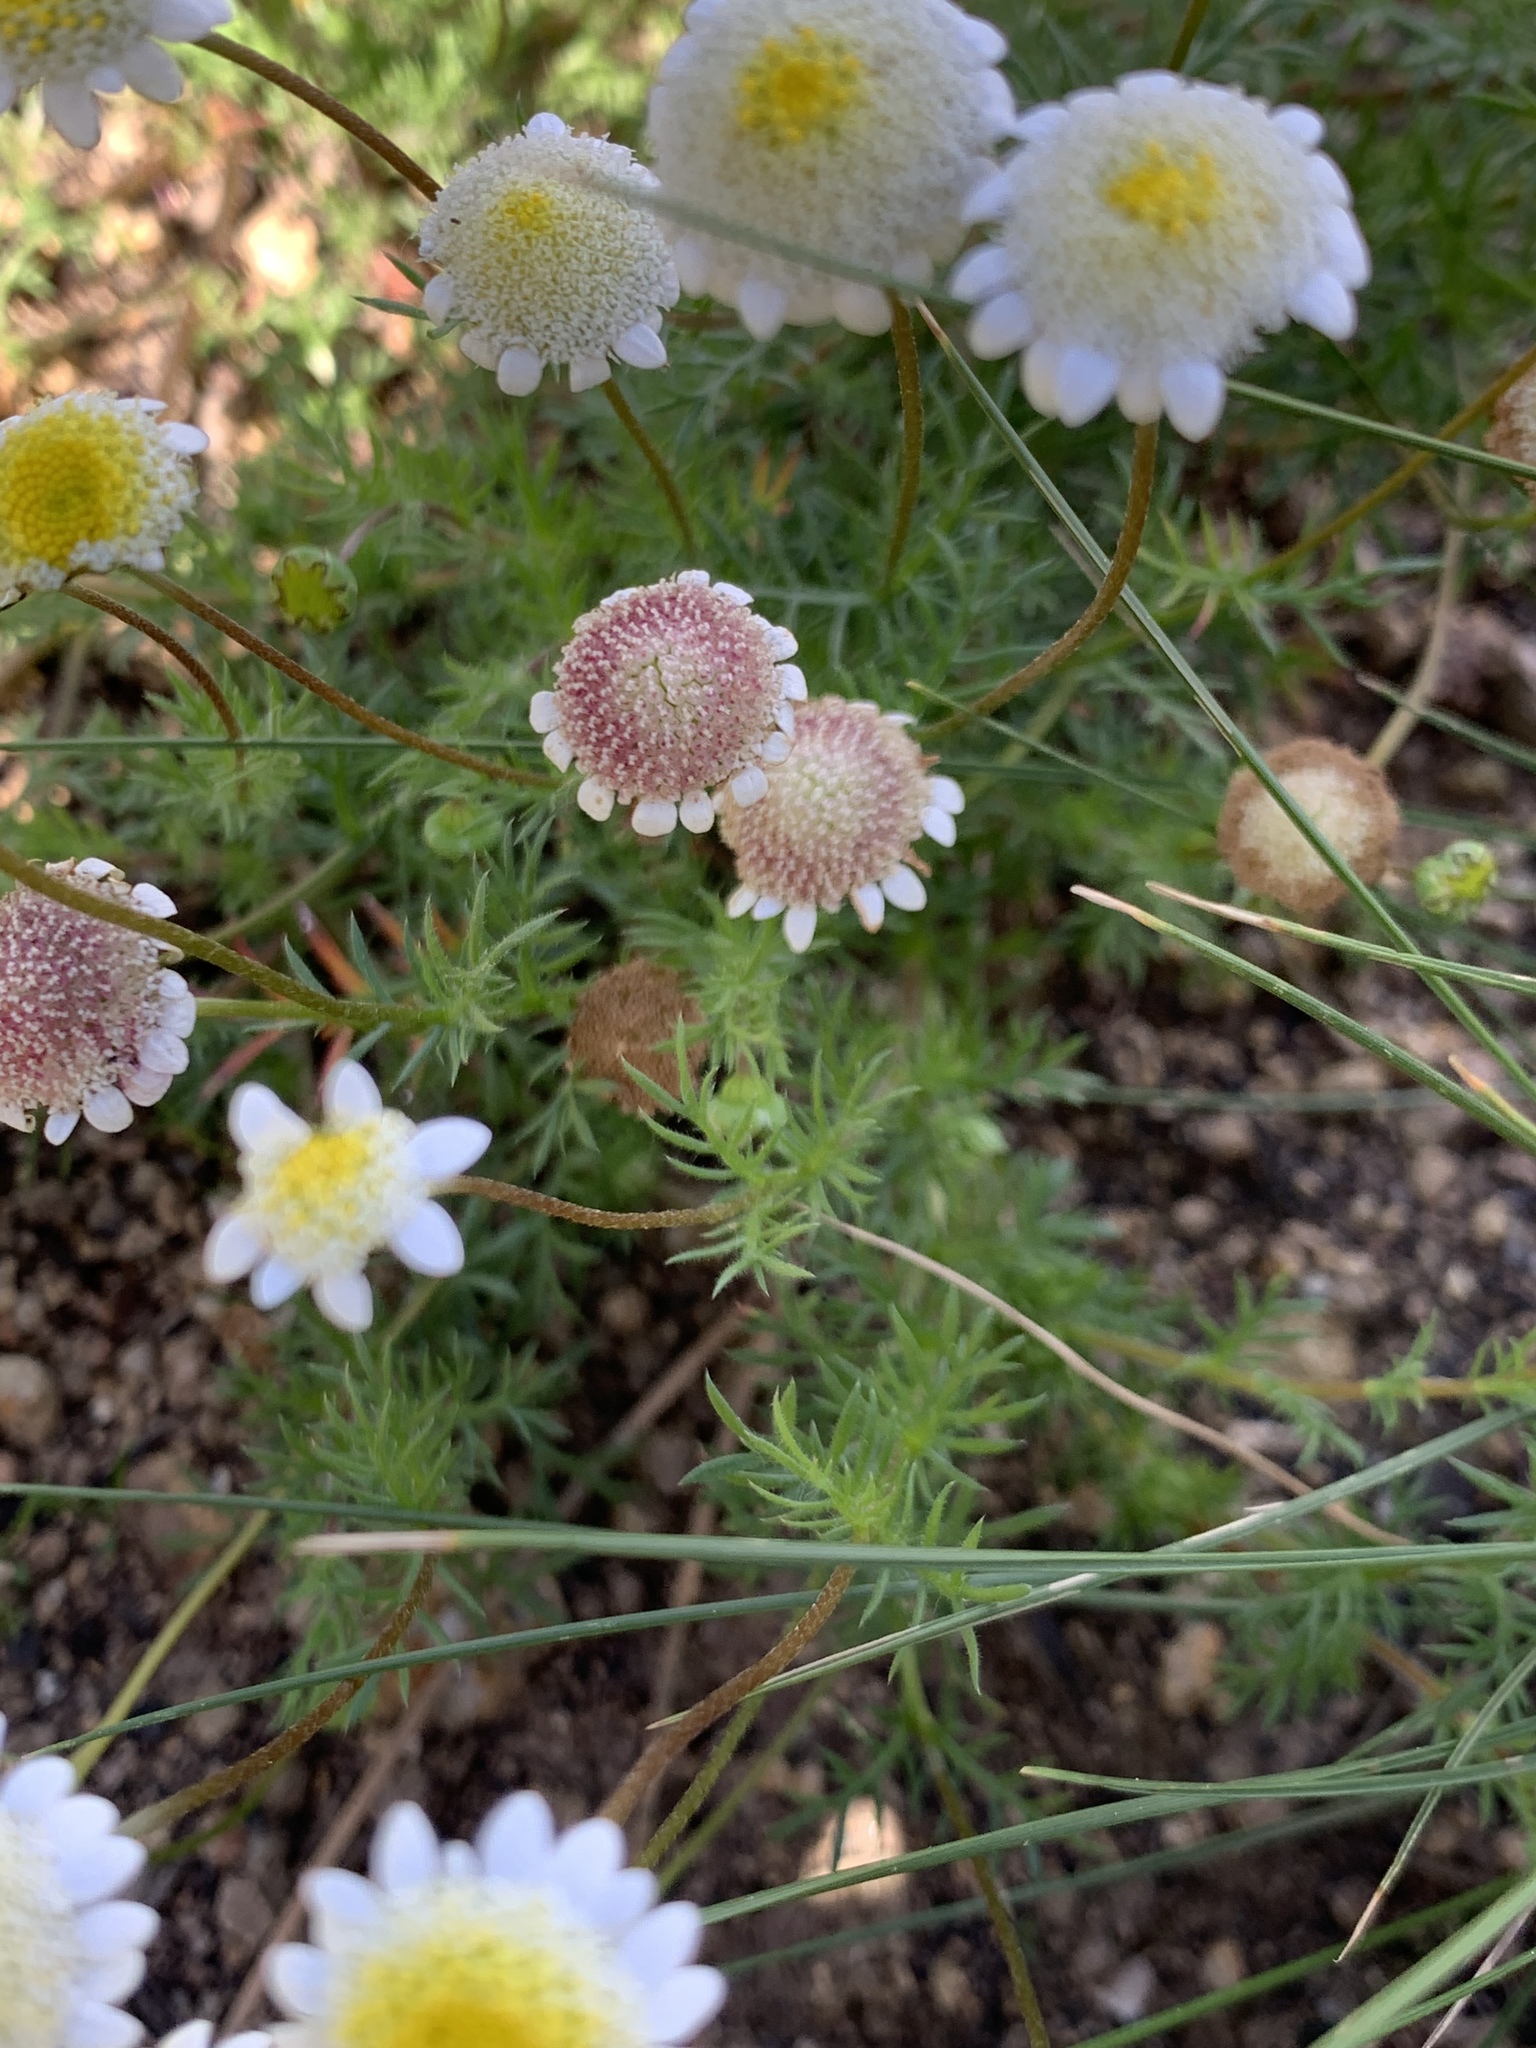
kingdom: Plantae
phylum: Tracheophyta
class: Magnoliopsida
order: Asterales
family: Asteraceae
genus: Cotula
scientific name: Cotula turbinata
